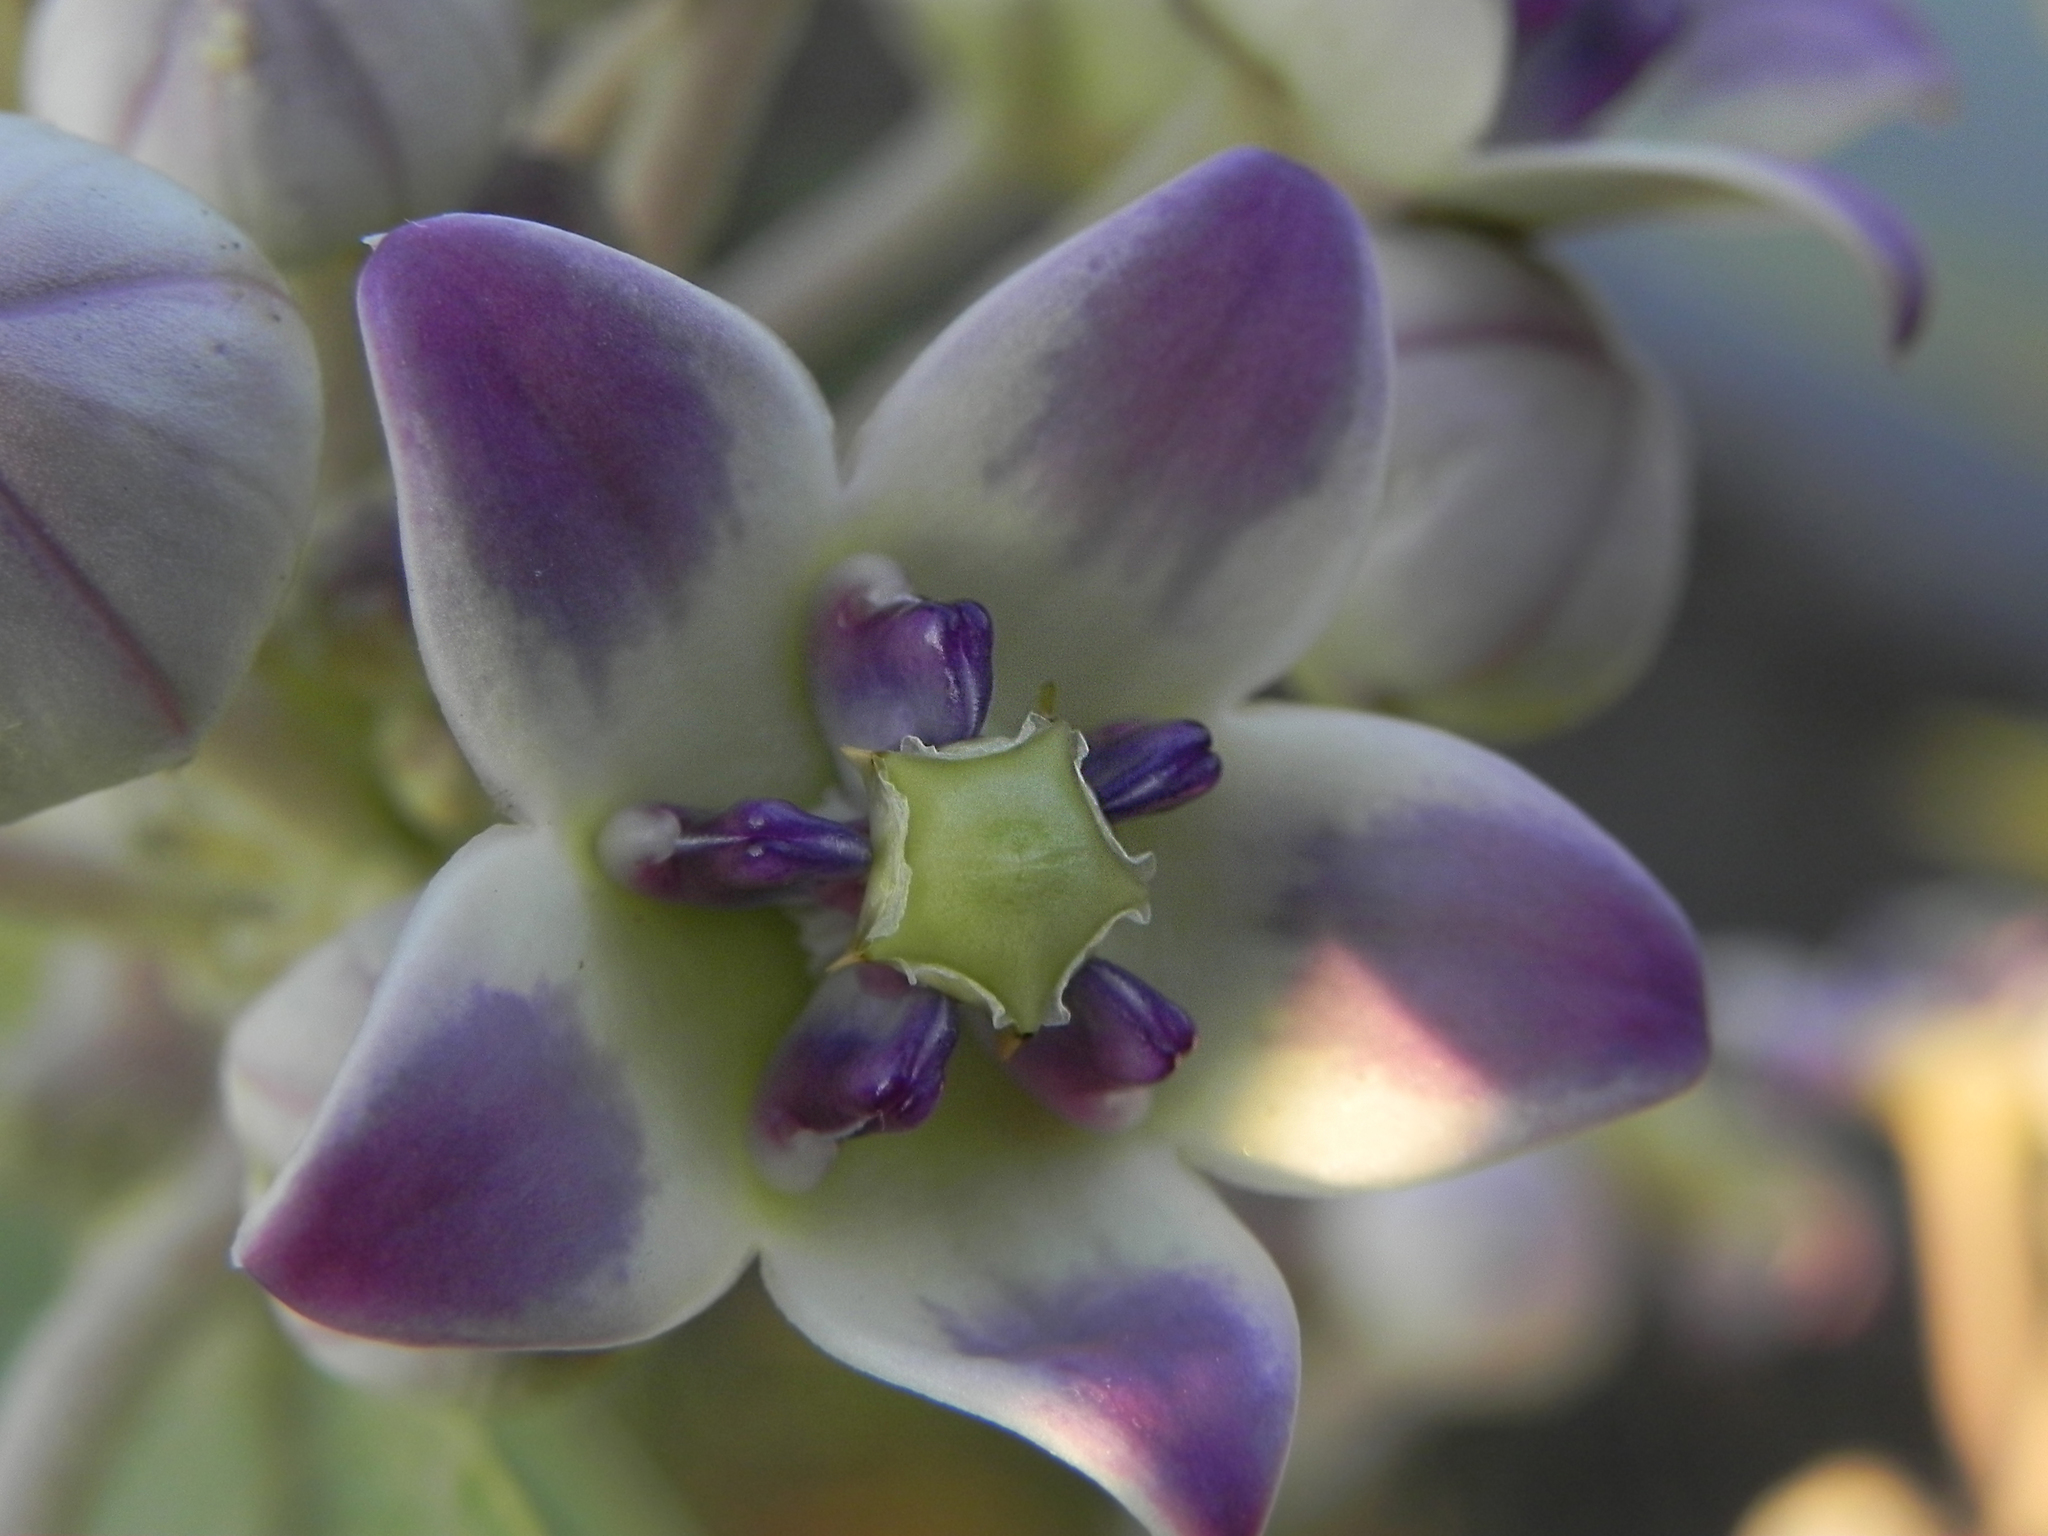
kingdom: Plantae
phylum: Tracheophyta
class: Magnoliopsida
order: Gentianales
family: Apocynaceae
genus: Calotropis
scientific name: Calotropis procera
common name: Roostertree
